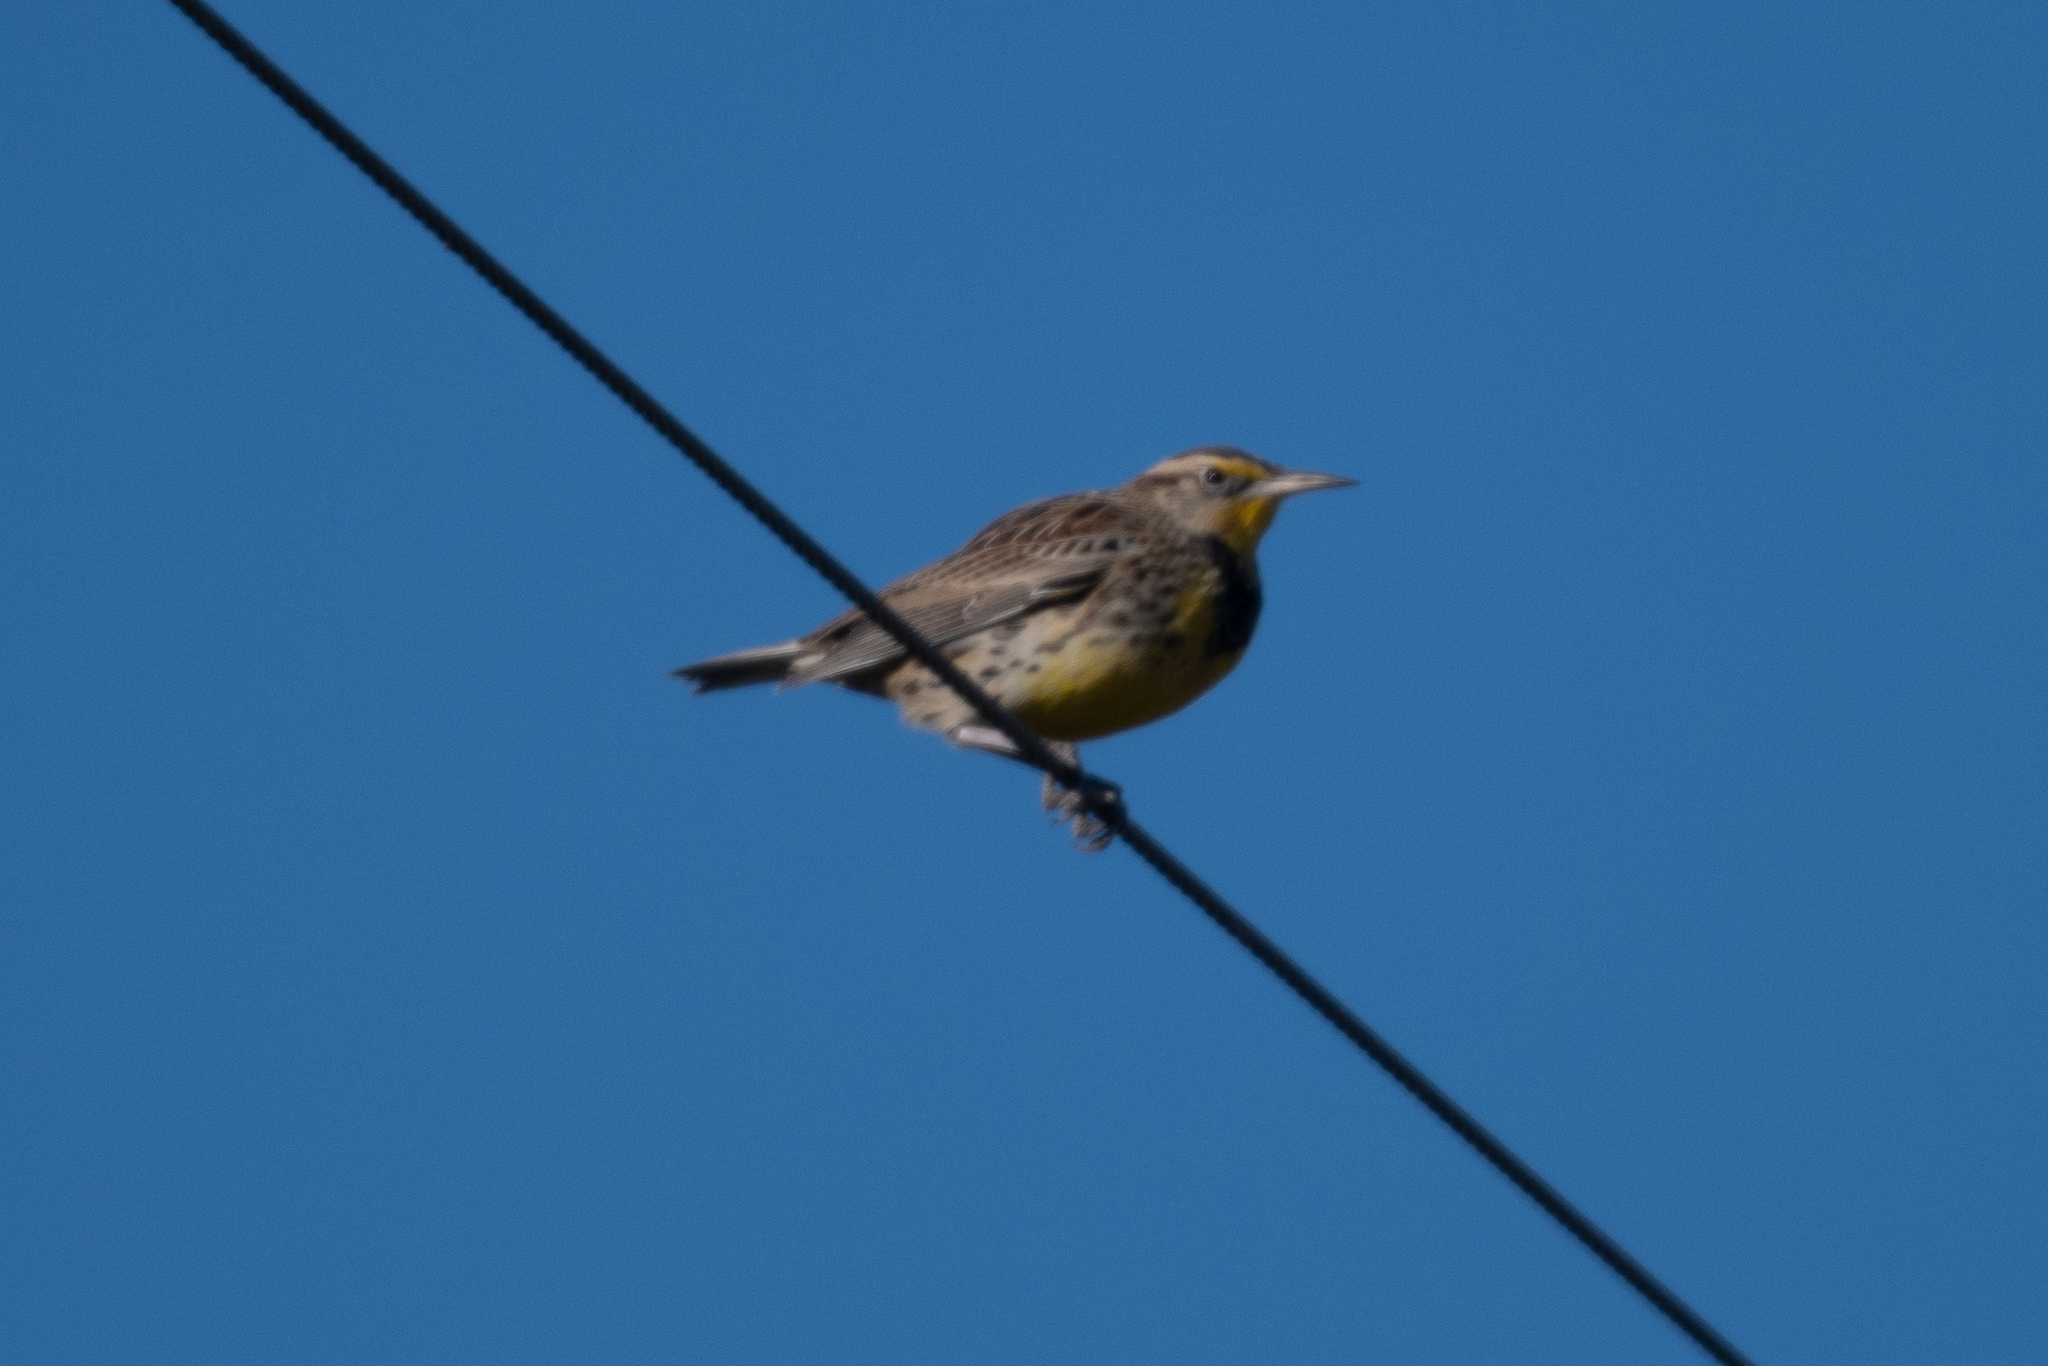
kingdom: Animalia
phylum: Chordata
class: Aves
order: Passeriformes
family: Icteridae
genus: Sturnella
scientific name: Sturnella neglecta
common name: Western meadowlark
